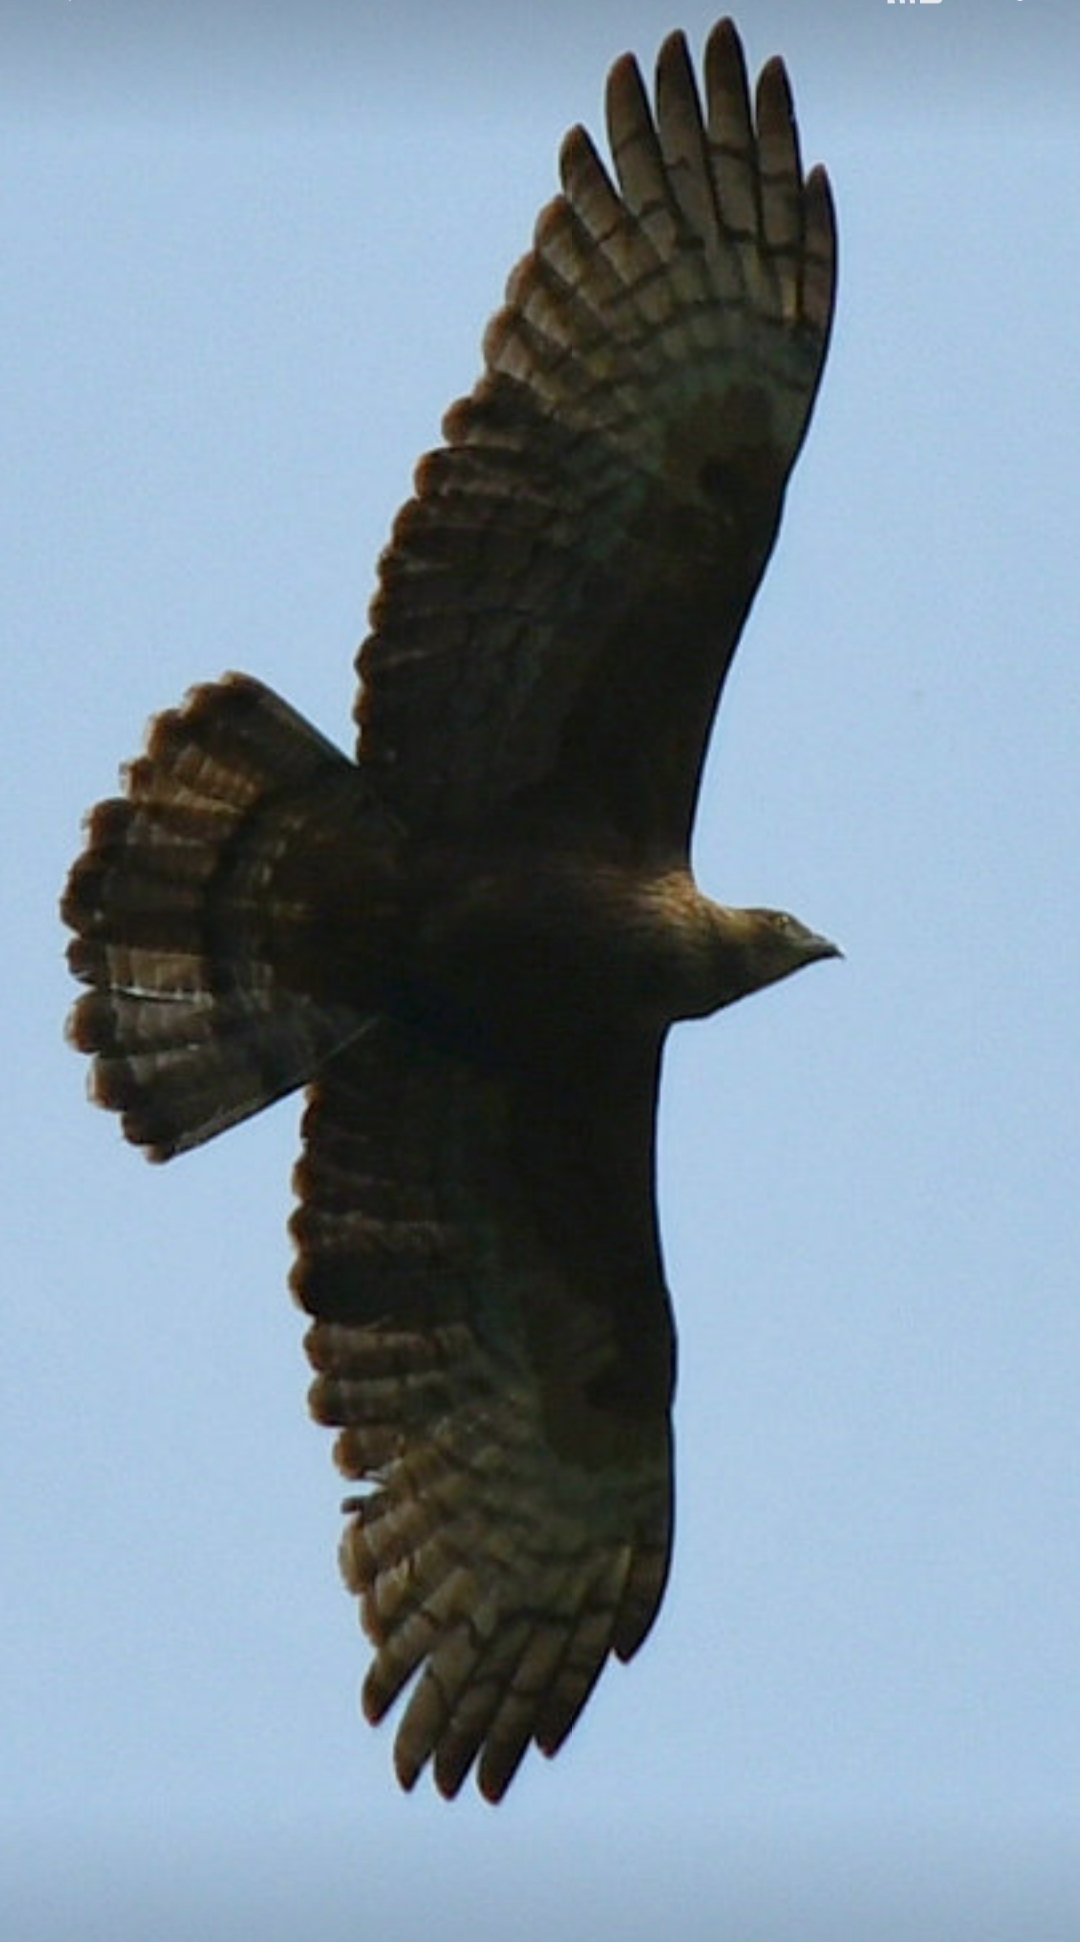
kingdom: Animalia
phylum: Chordata
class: Aves
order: Accipitriformes
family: Accipitridae
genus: Pernis
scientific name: Pernis ptilorhynchus
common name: Crested honey buzzard
